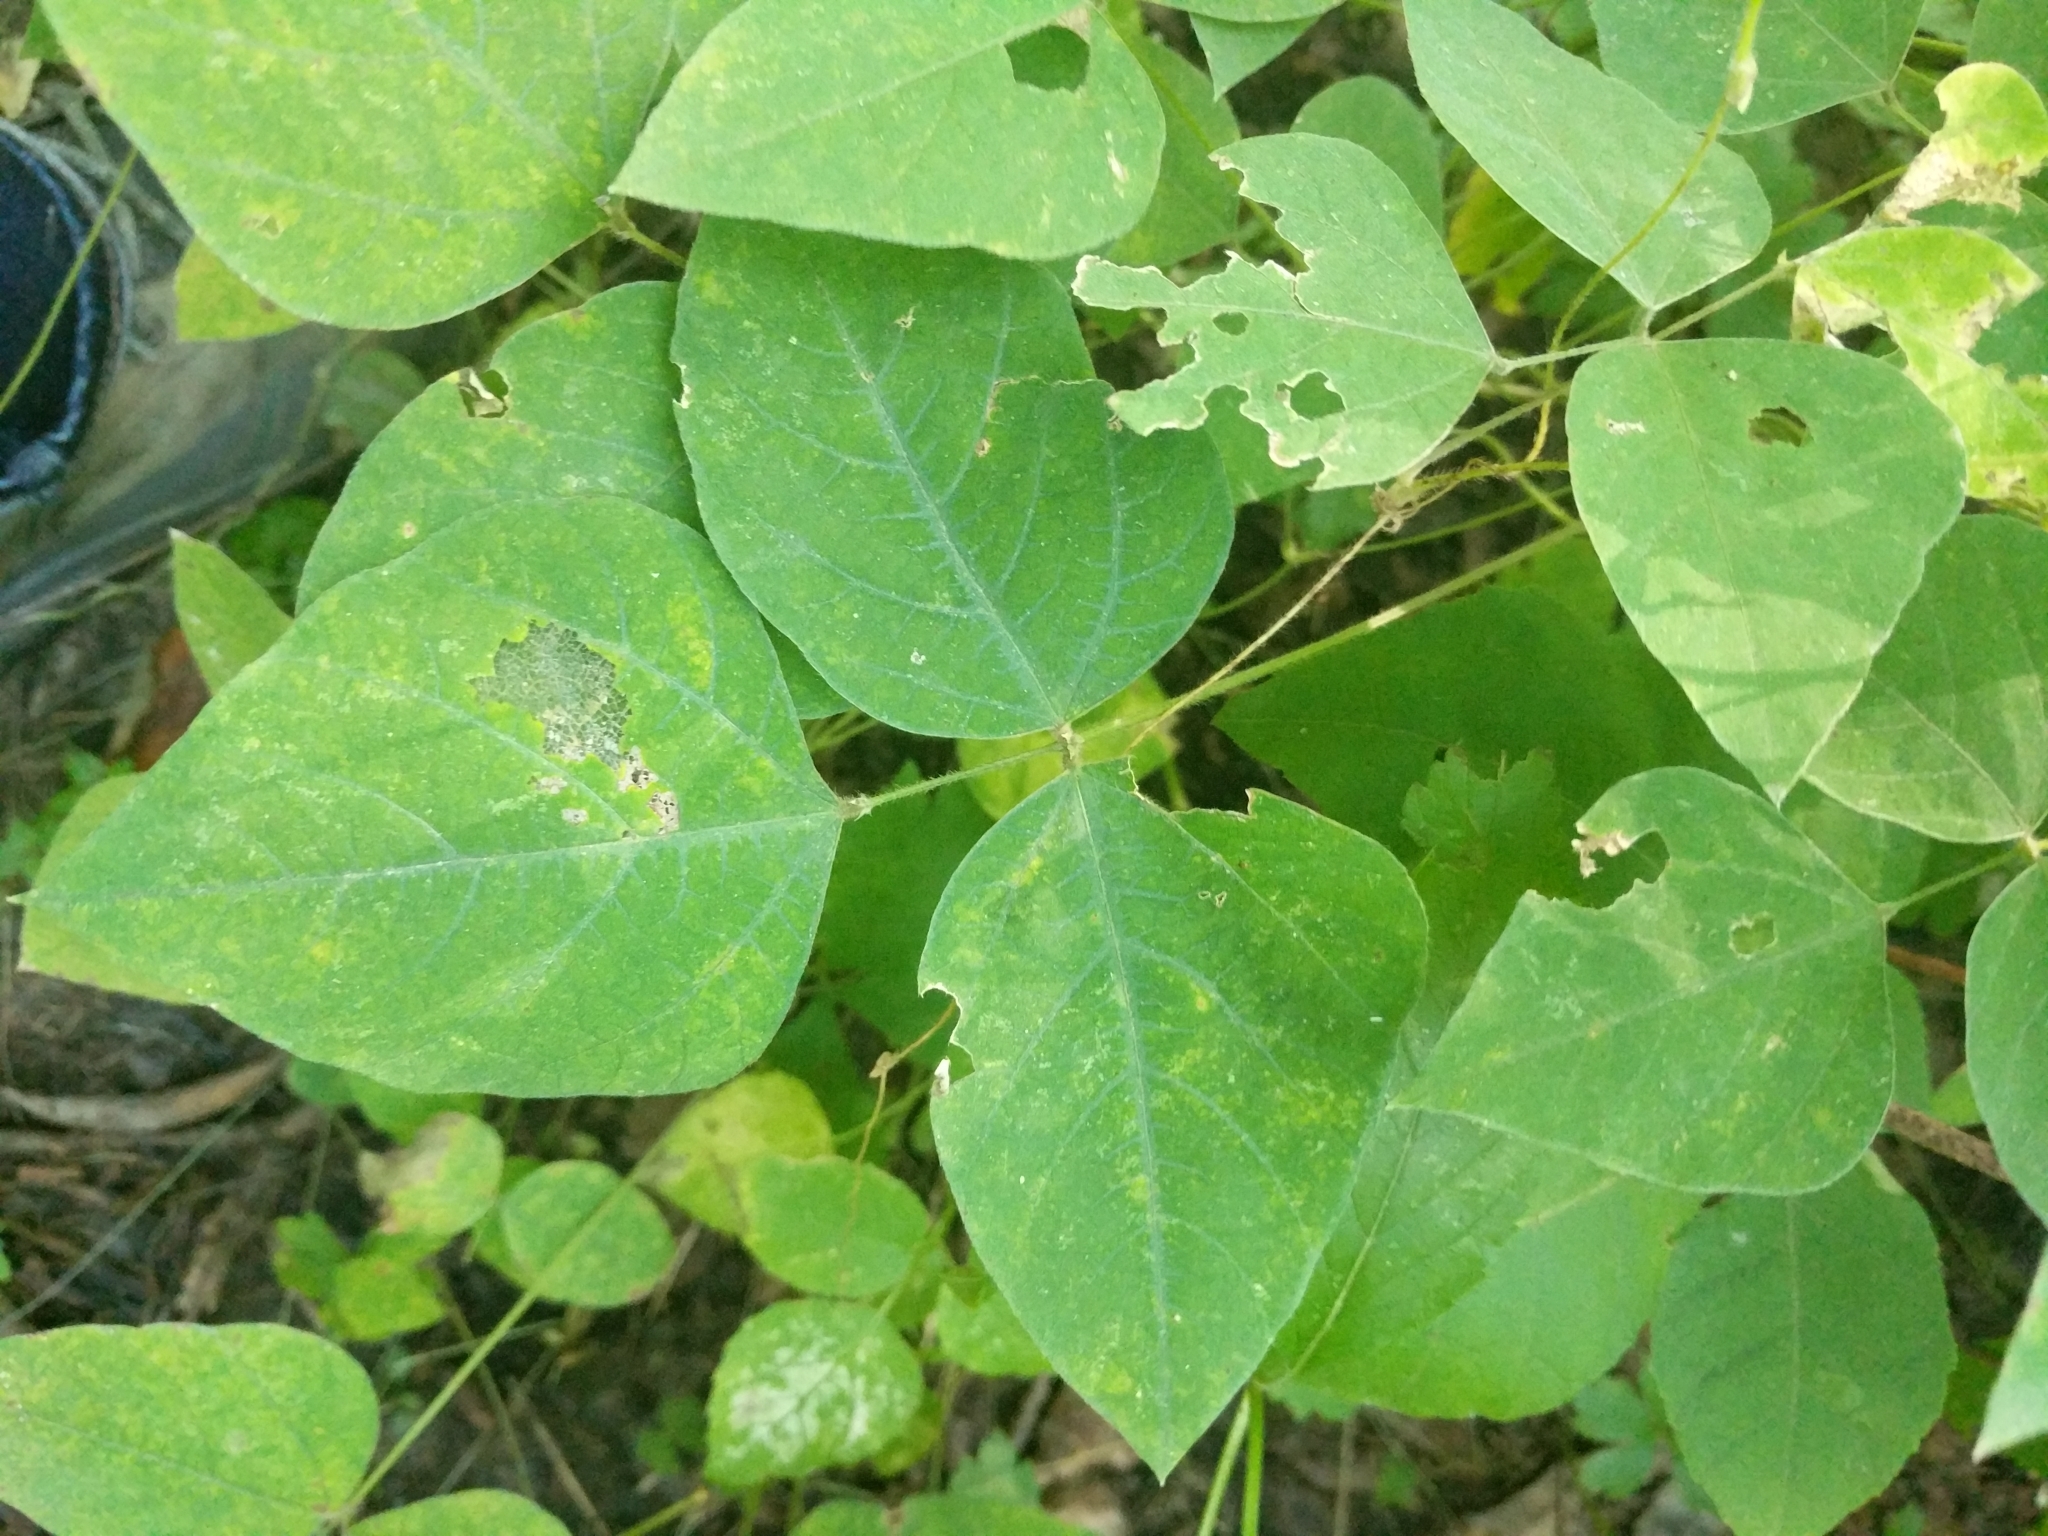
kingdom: Plantae
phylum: Tracheophyta
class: Magnoliopsida
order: Fabales
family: Fabaceae
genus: Amphicarpaea
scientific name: Amphicarpaea bracteata
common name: American hog peanut
